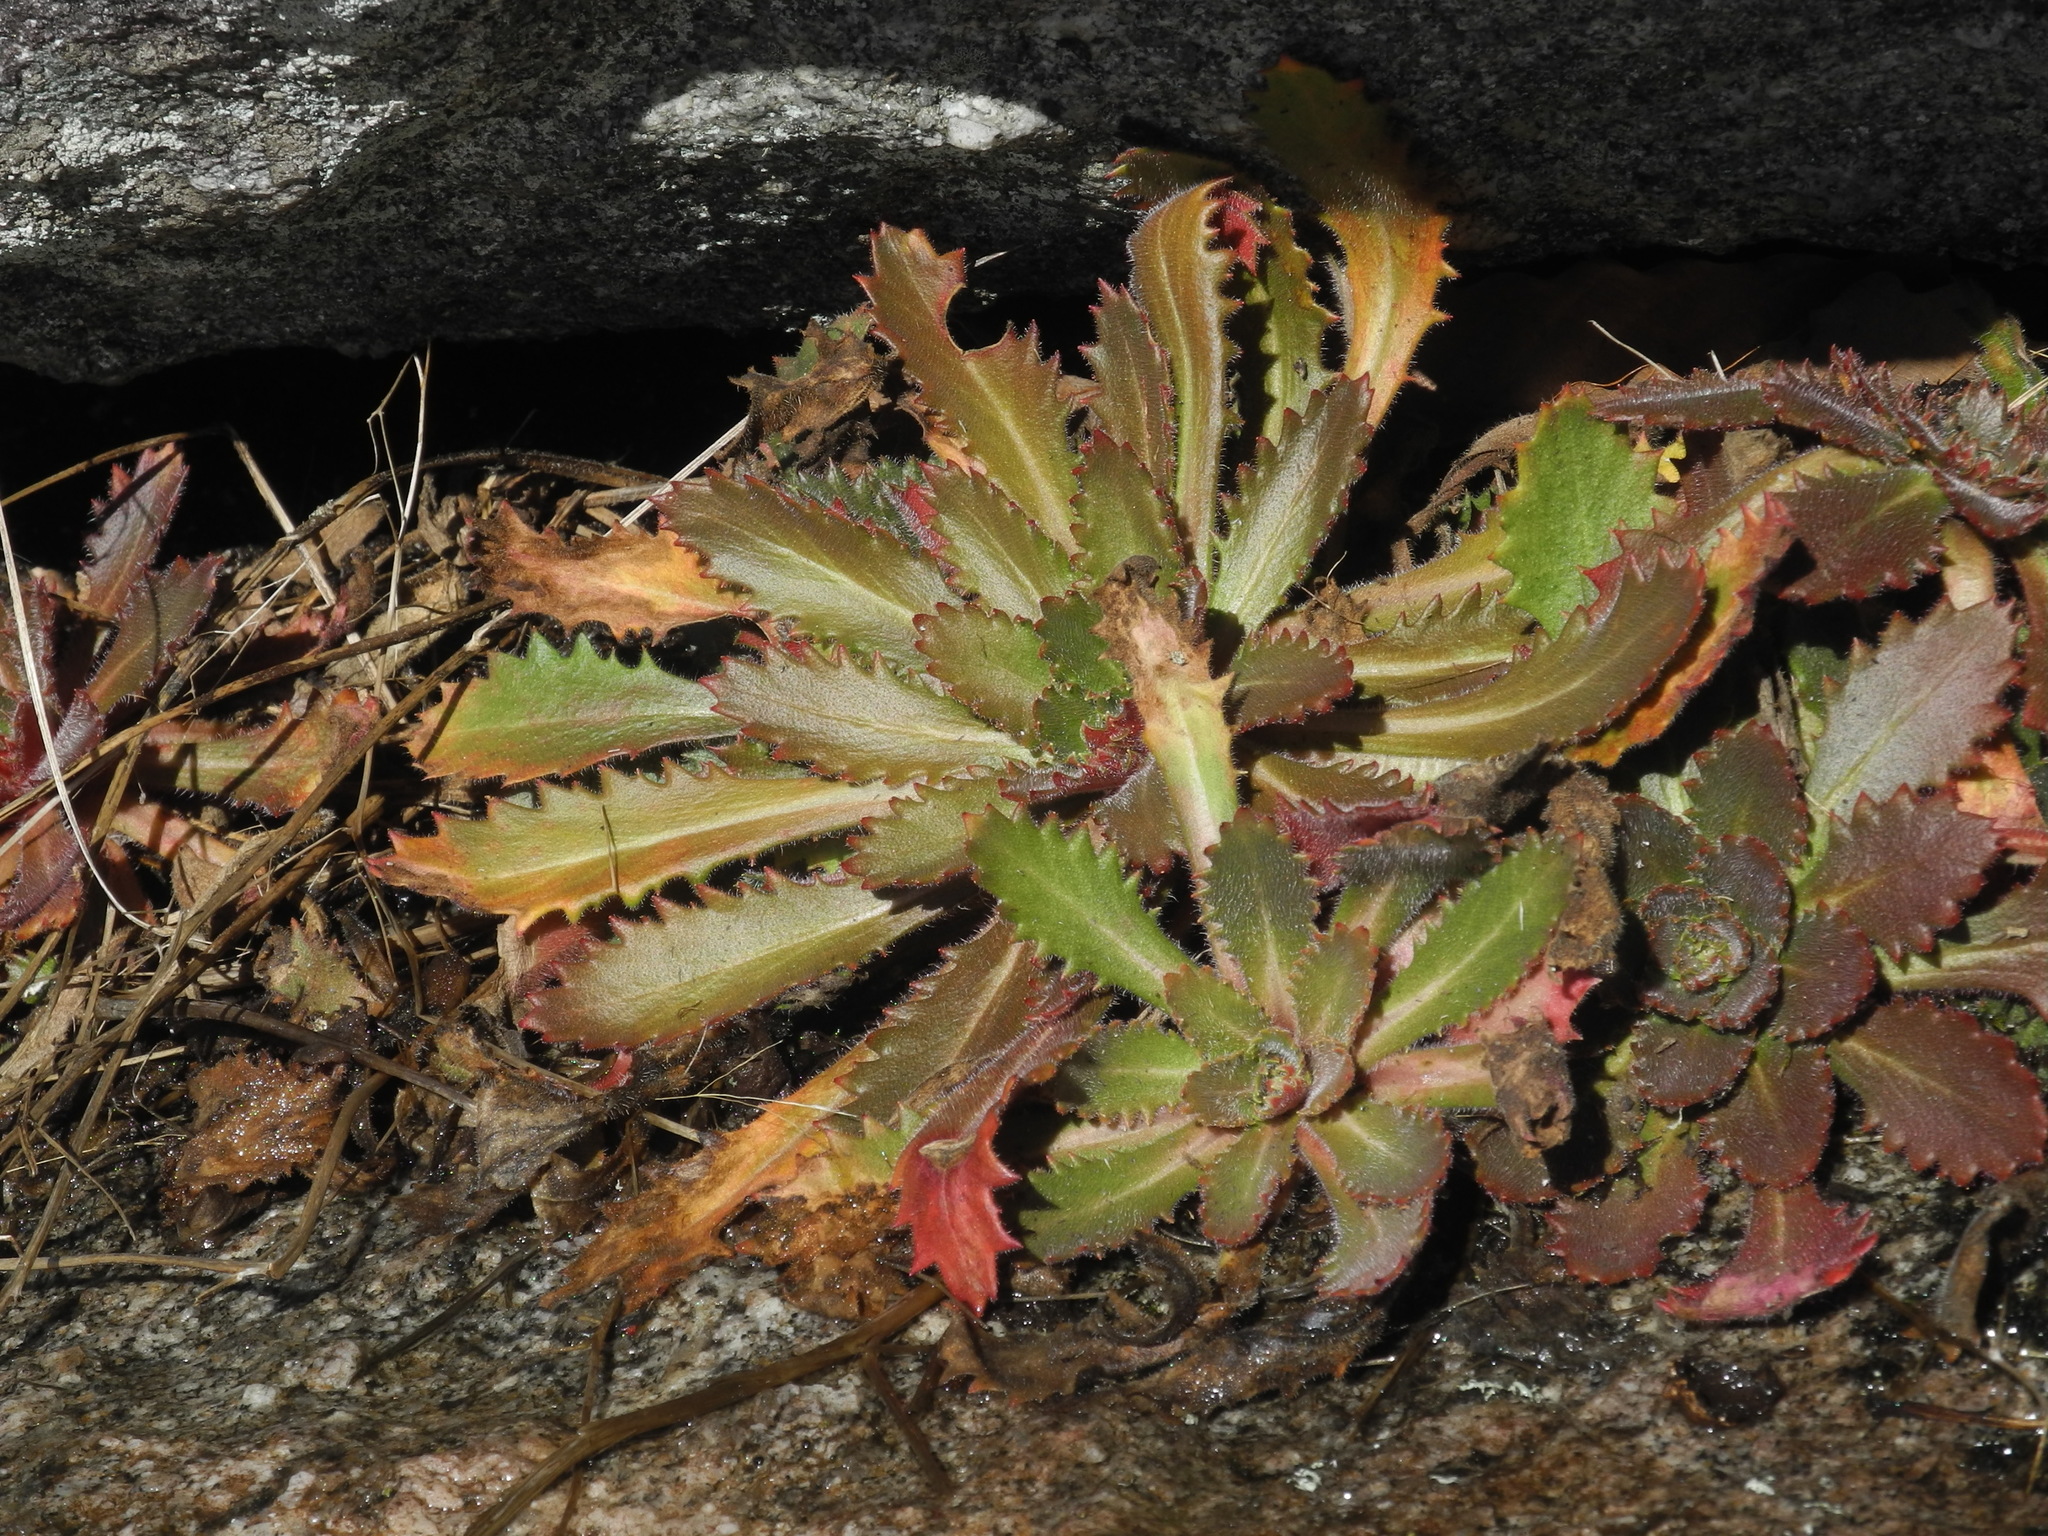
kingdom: Plantae
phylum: Tracheophyta
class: Magnoliopsida
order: Saxifragales
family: Saxifragaceae
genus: Micranthes
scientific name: Micranthes petiolaris
